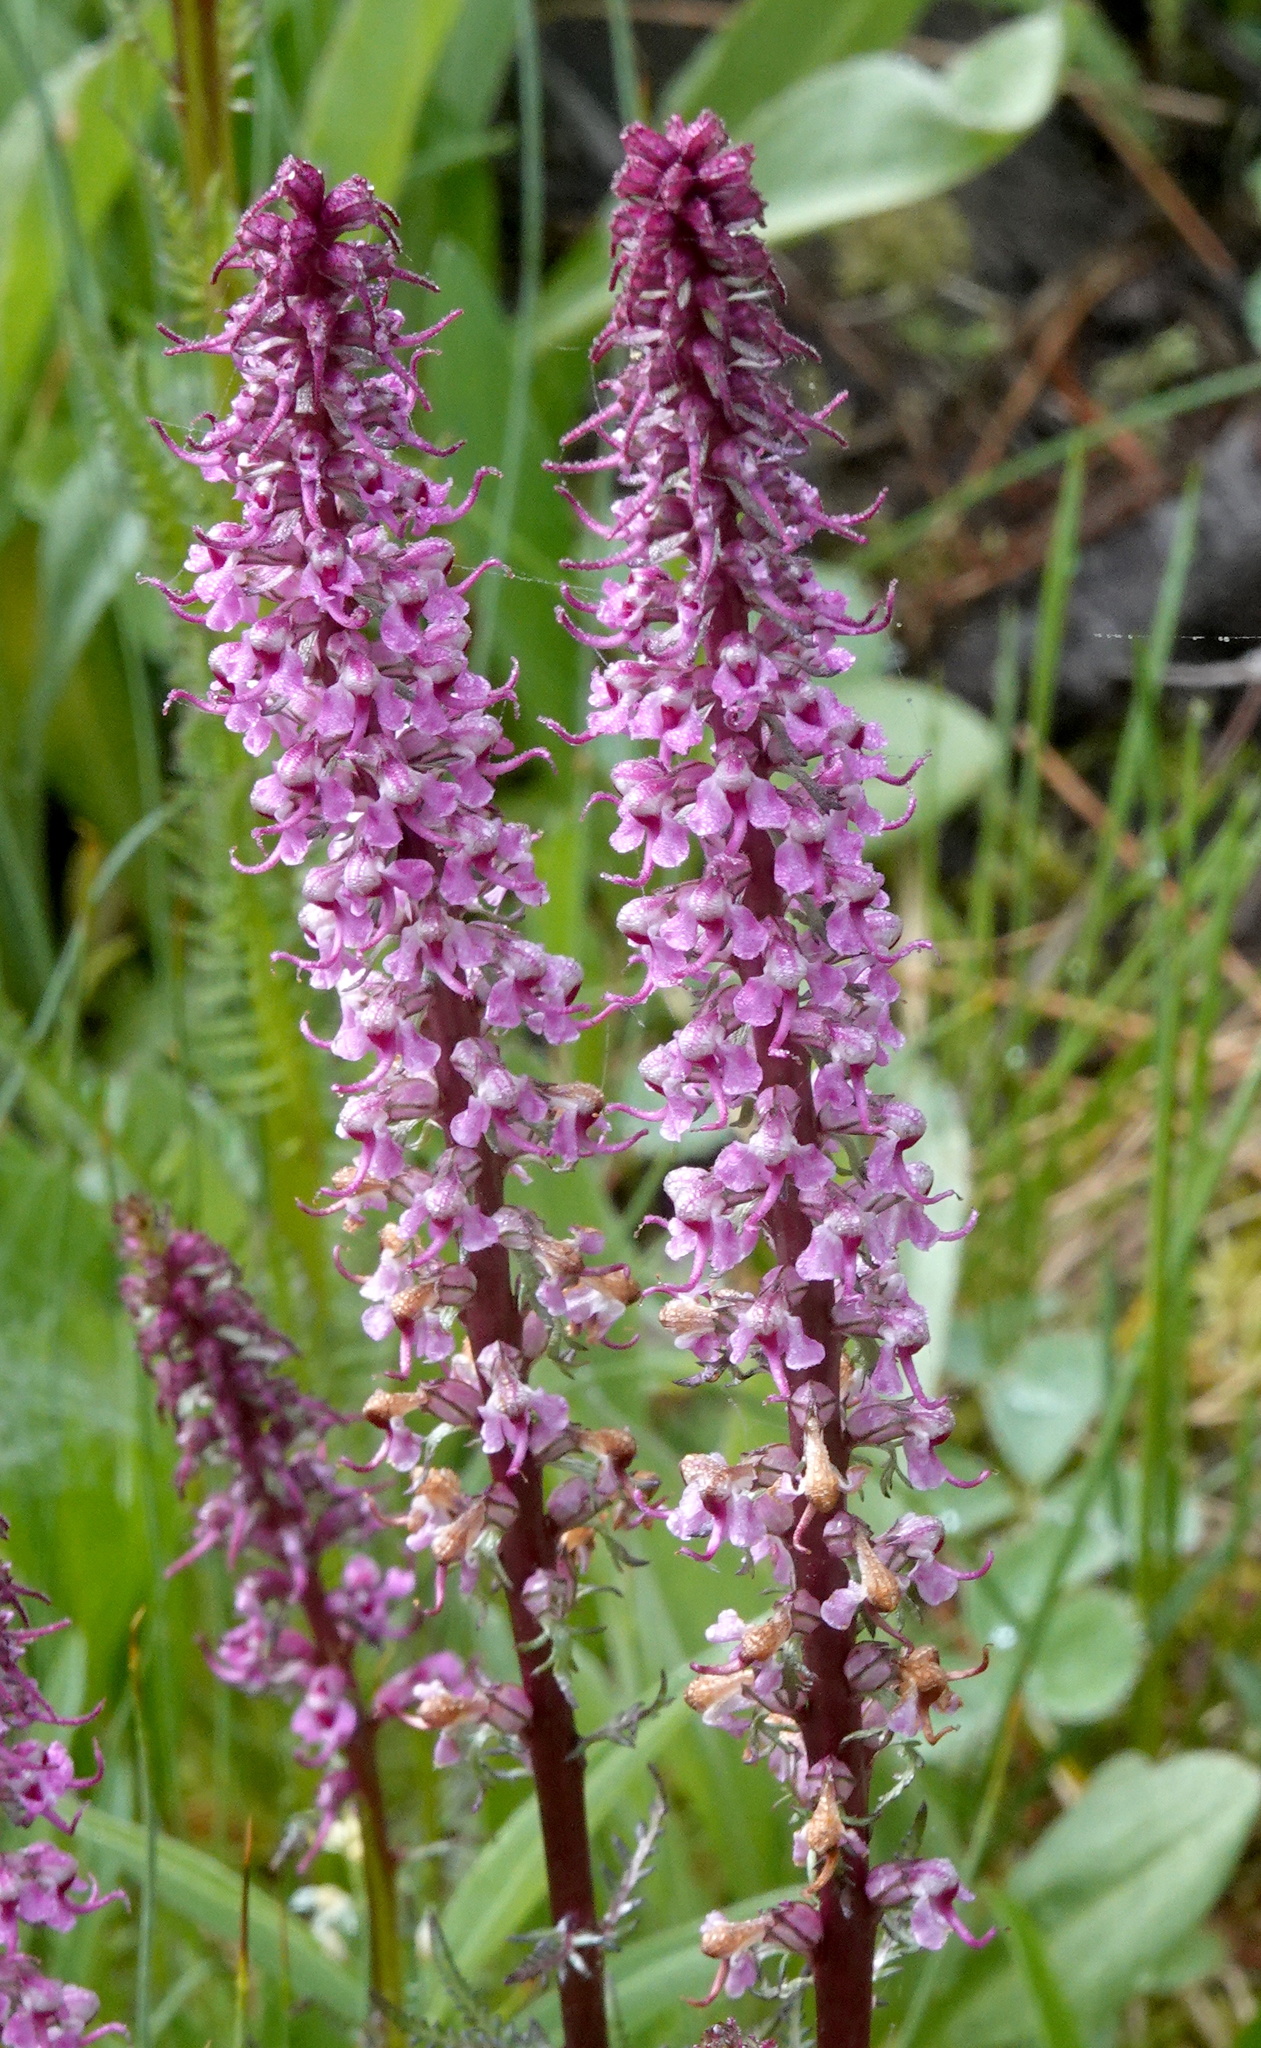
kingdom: Plantae
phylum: Tracheophyta
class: Magnoliopsida
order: Lamiales
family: Orobanchaceae
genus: Pedicularis
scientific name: Pedicularis groenlandica
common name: Elephant's-head
